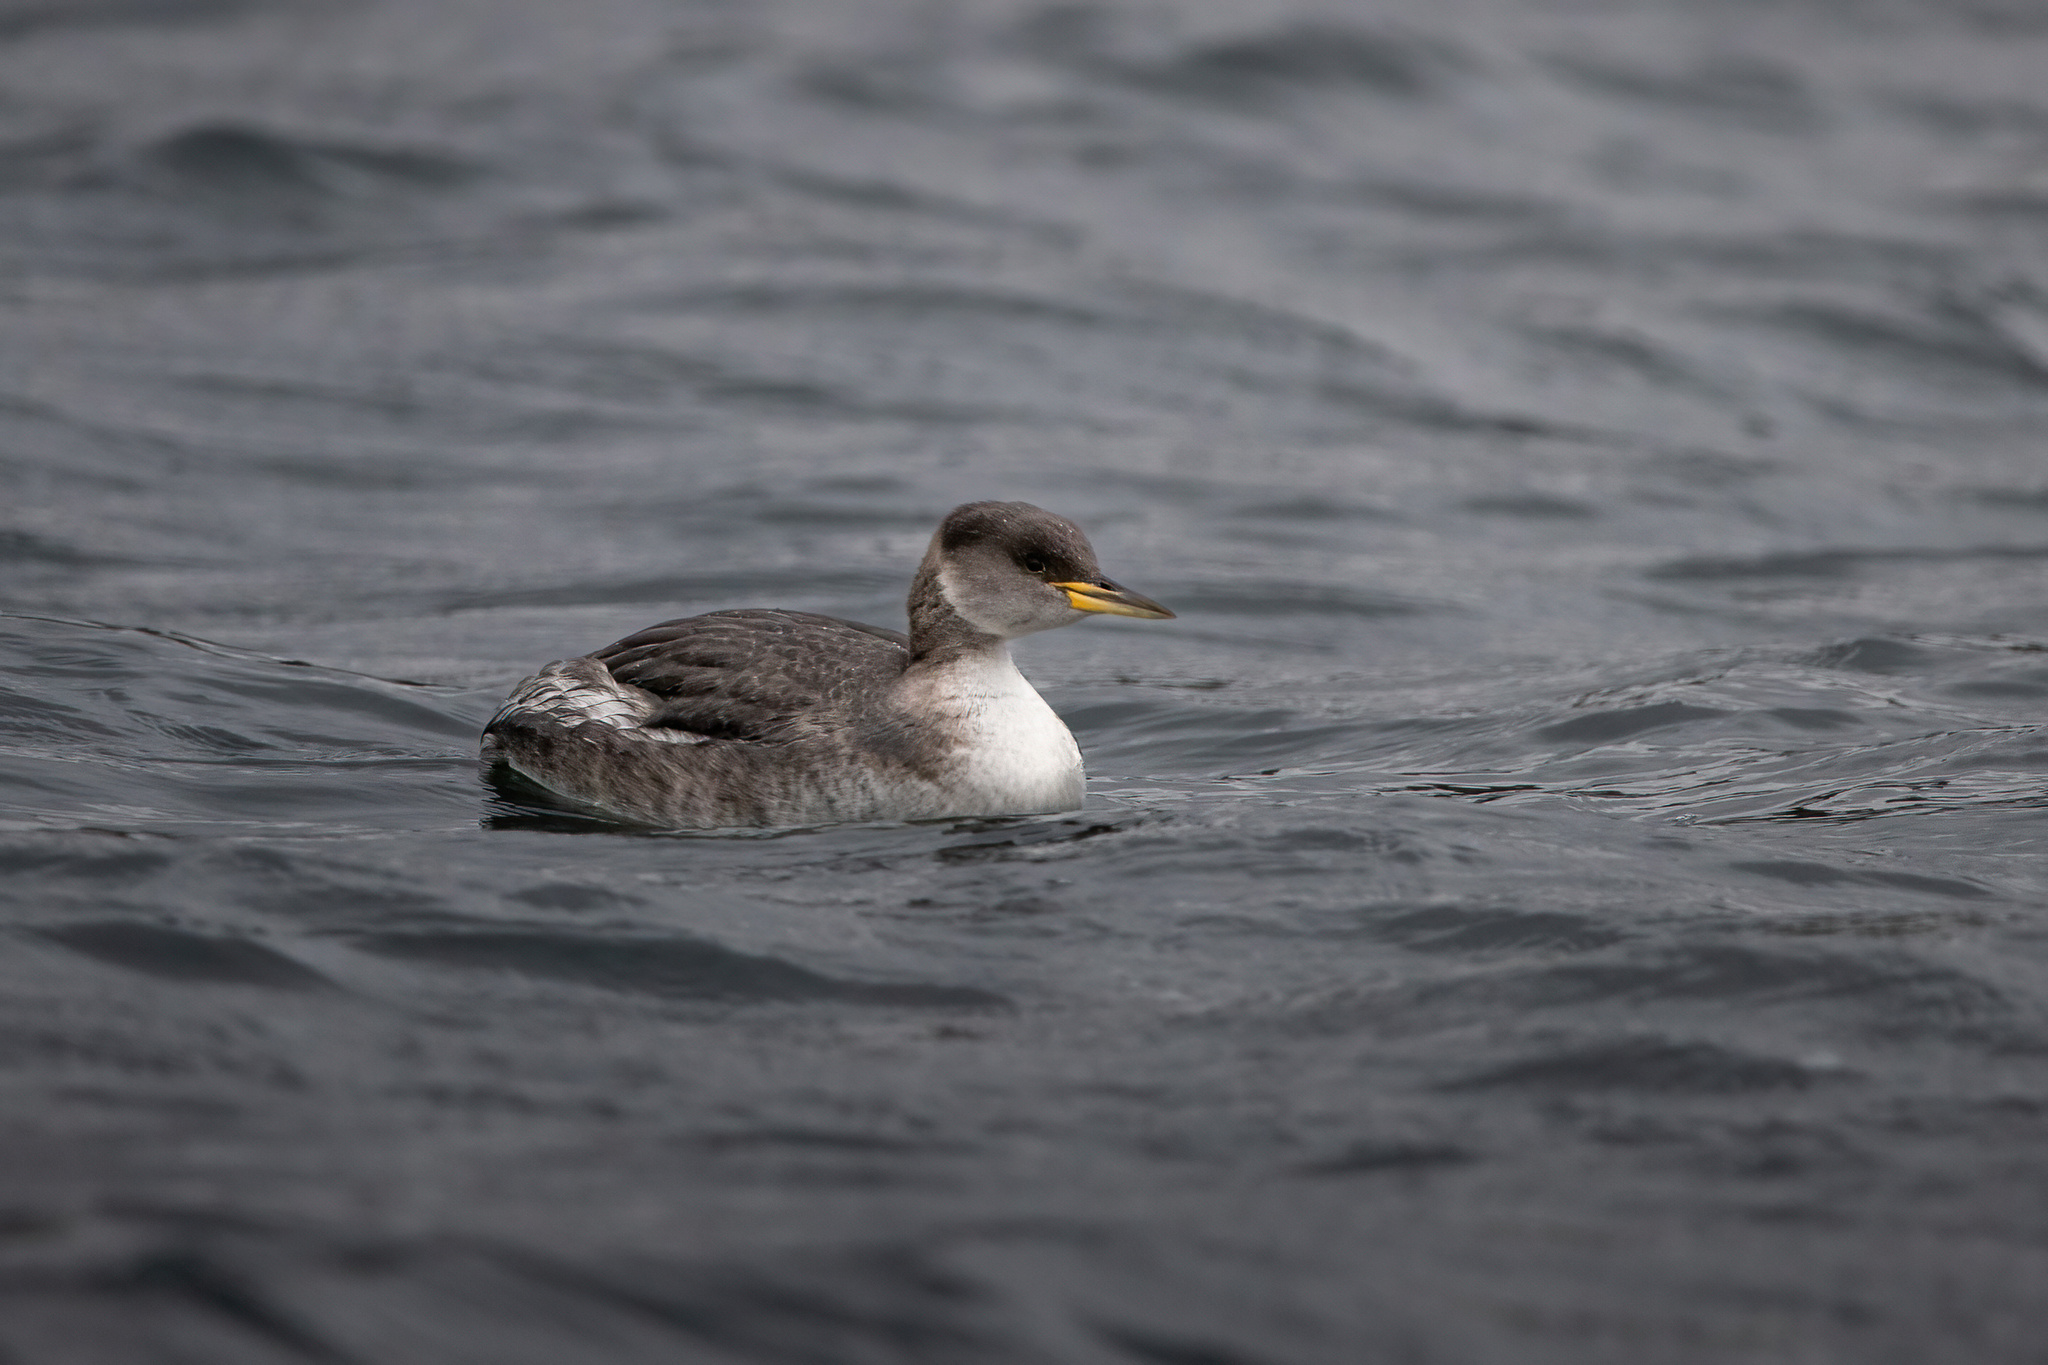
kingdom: Animalia
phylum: Chordata
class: Aves
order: Podicipediformes
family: Podicipedidae
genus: Podiceps
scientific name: Podiceps grisegena
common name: Red-necked grebe
